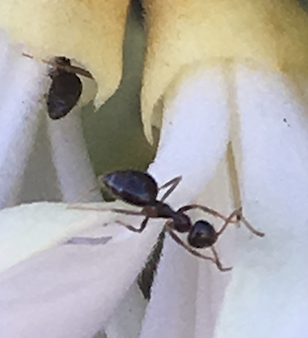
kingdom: Animalia
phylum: Arthropoda
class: Insecta
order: Hymenoptera
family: Formicidae
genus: Prenolepis
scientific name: Prenolepis imparis
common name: Small honey ant
